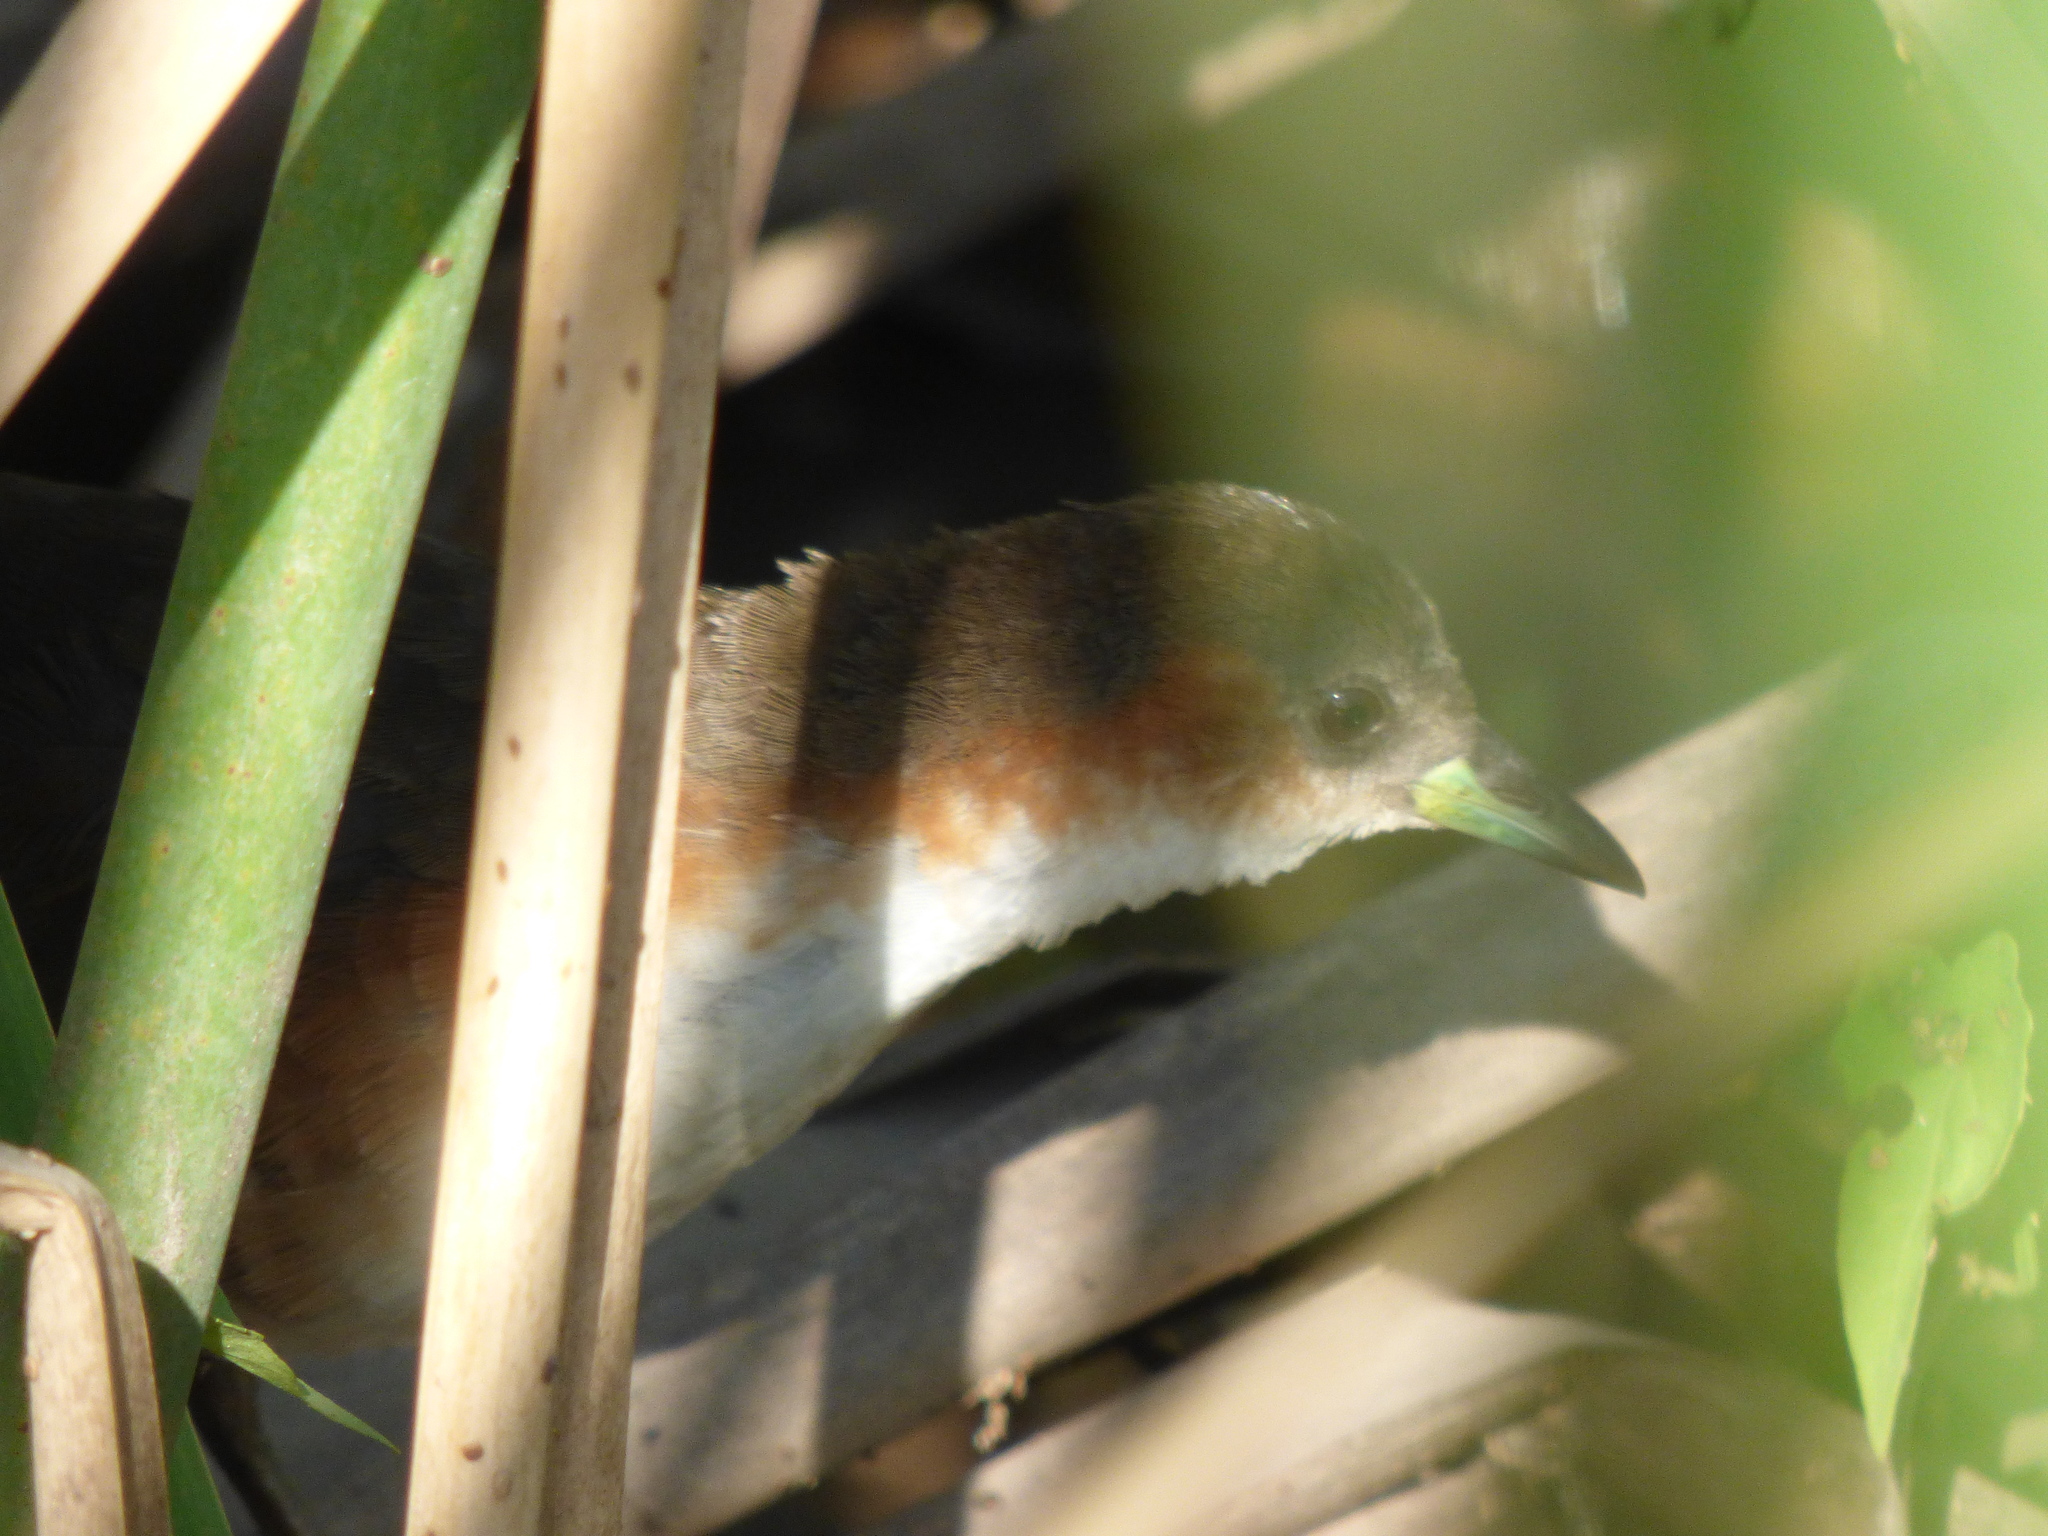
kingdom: Animalia
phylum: Chordata
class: Aves
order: Gruiformes
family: Rallidae
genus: Laterallus
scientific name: Laterallus melanophaius
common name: Rufous-sided crake
